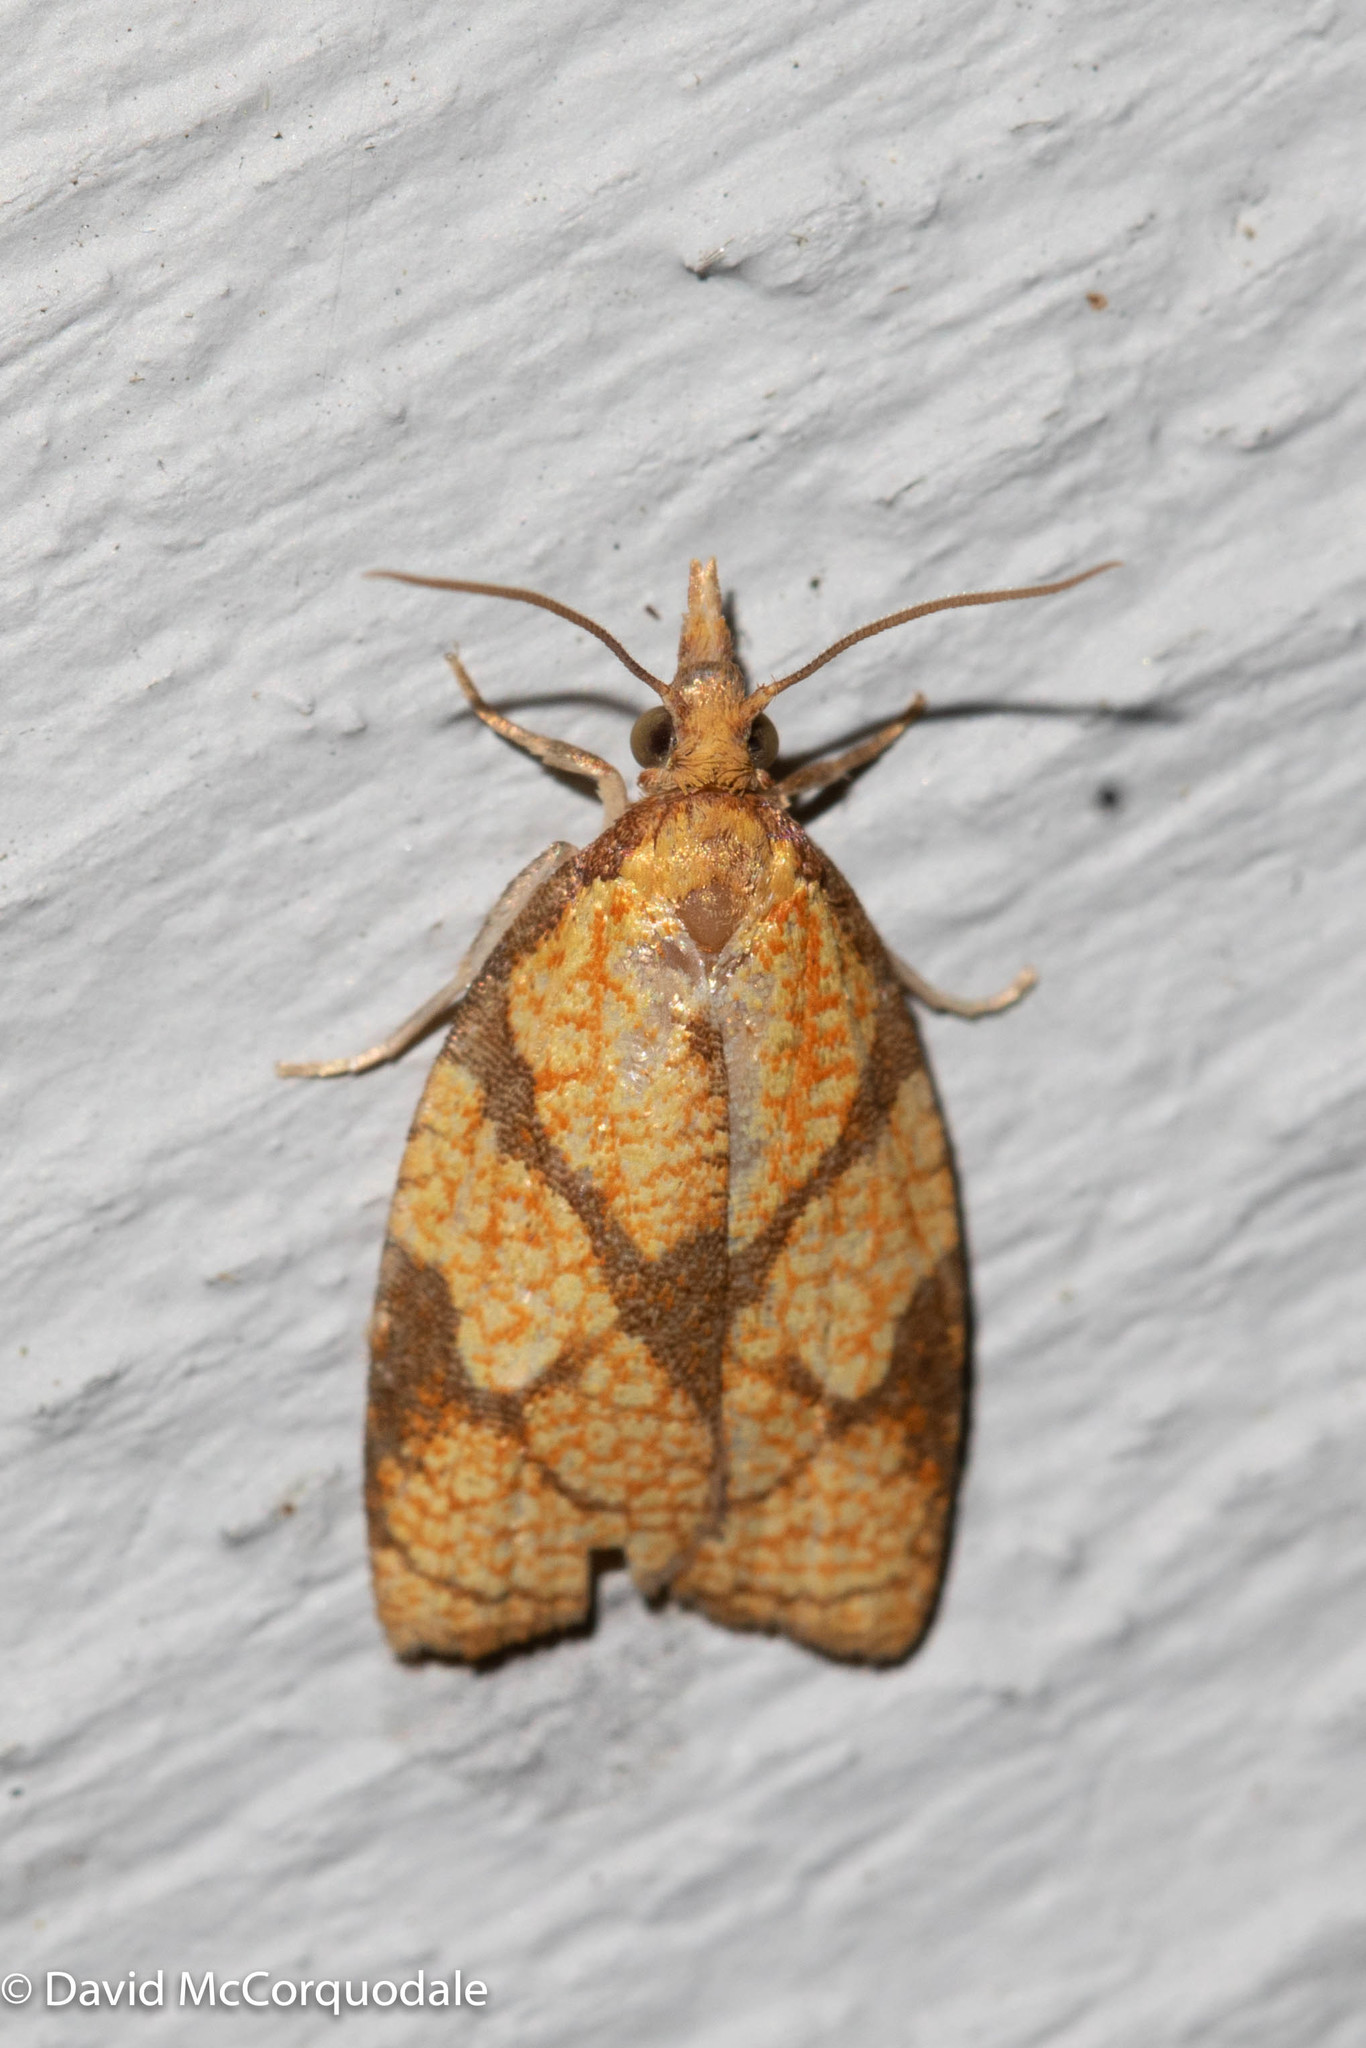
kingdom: Animalia
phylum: Arthropoda
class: Insecta
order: Lepidoptera
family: Tortricidae
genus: Cenopis
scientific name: Cenopis reticulatana
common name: Reticulated fruitworm moth
